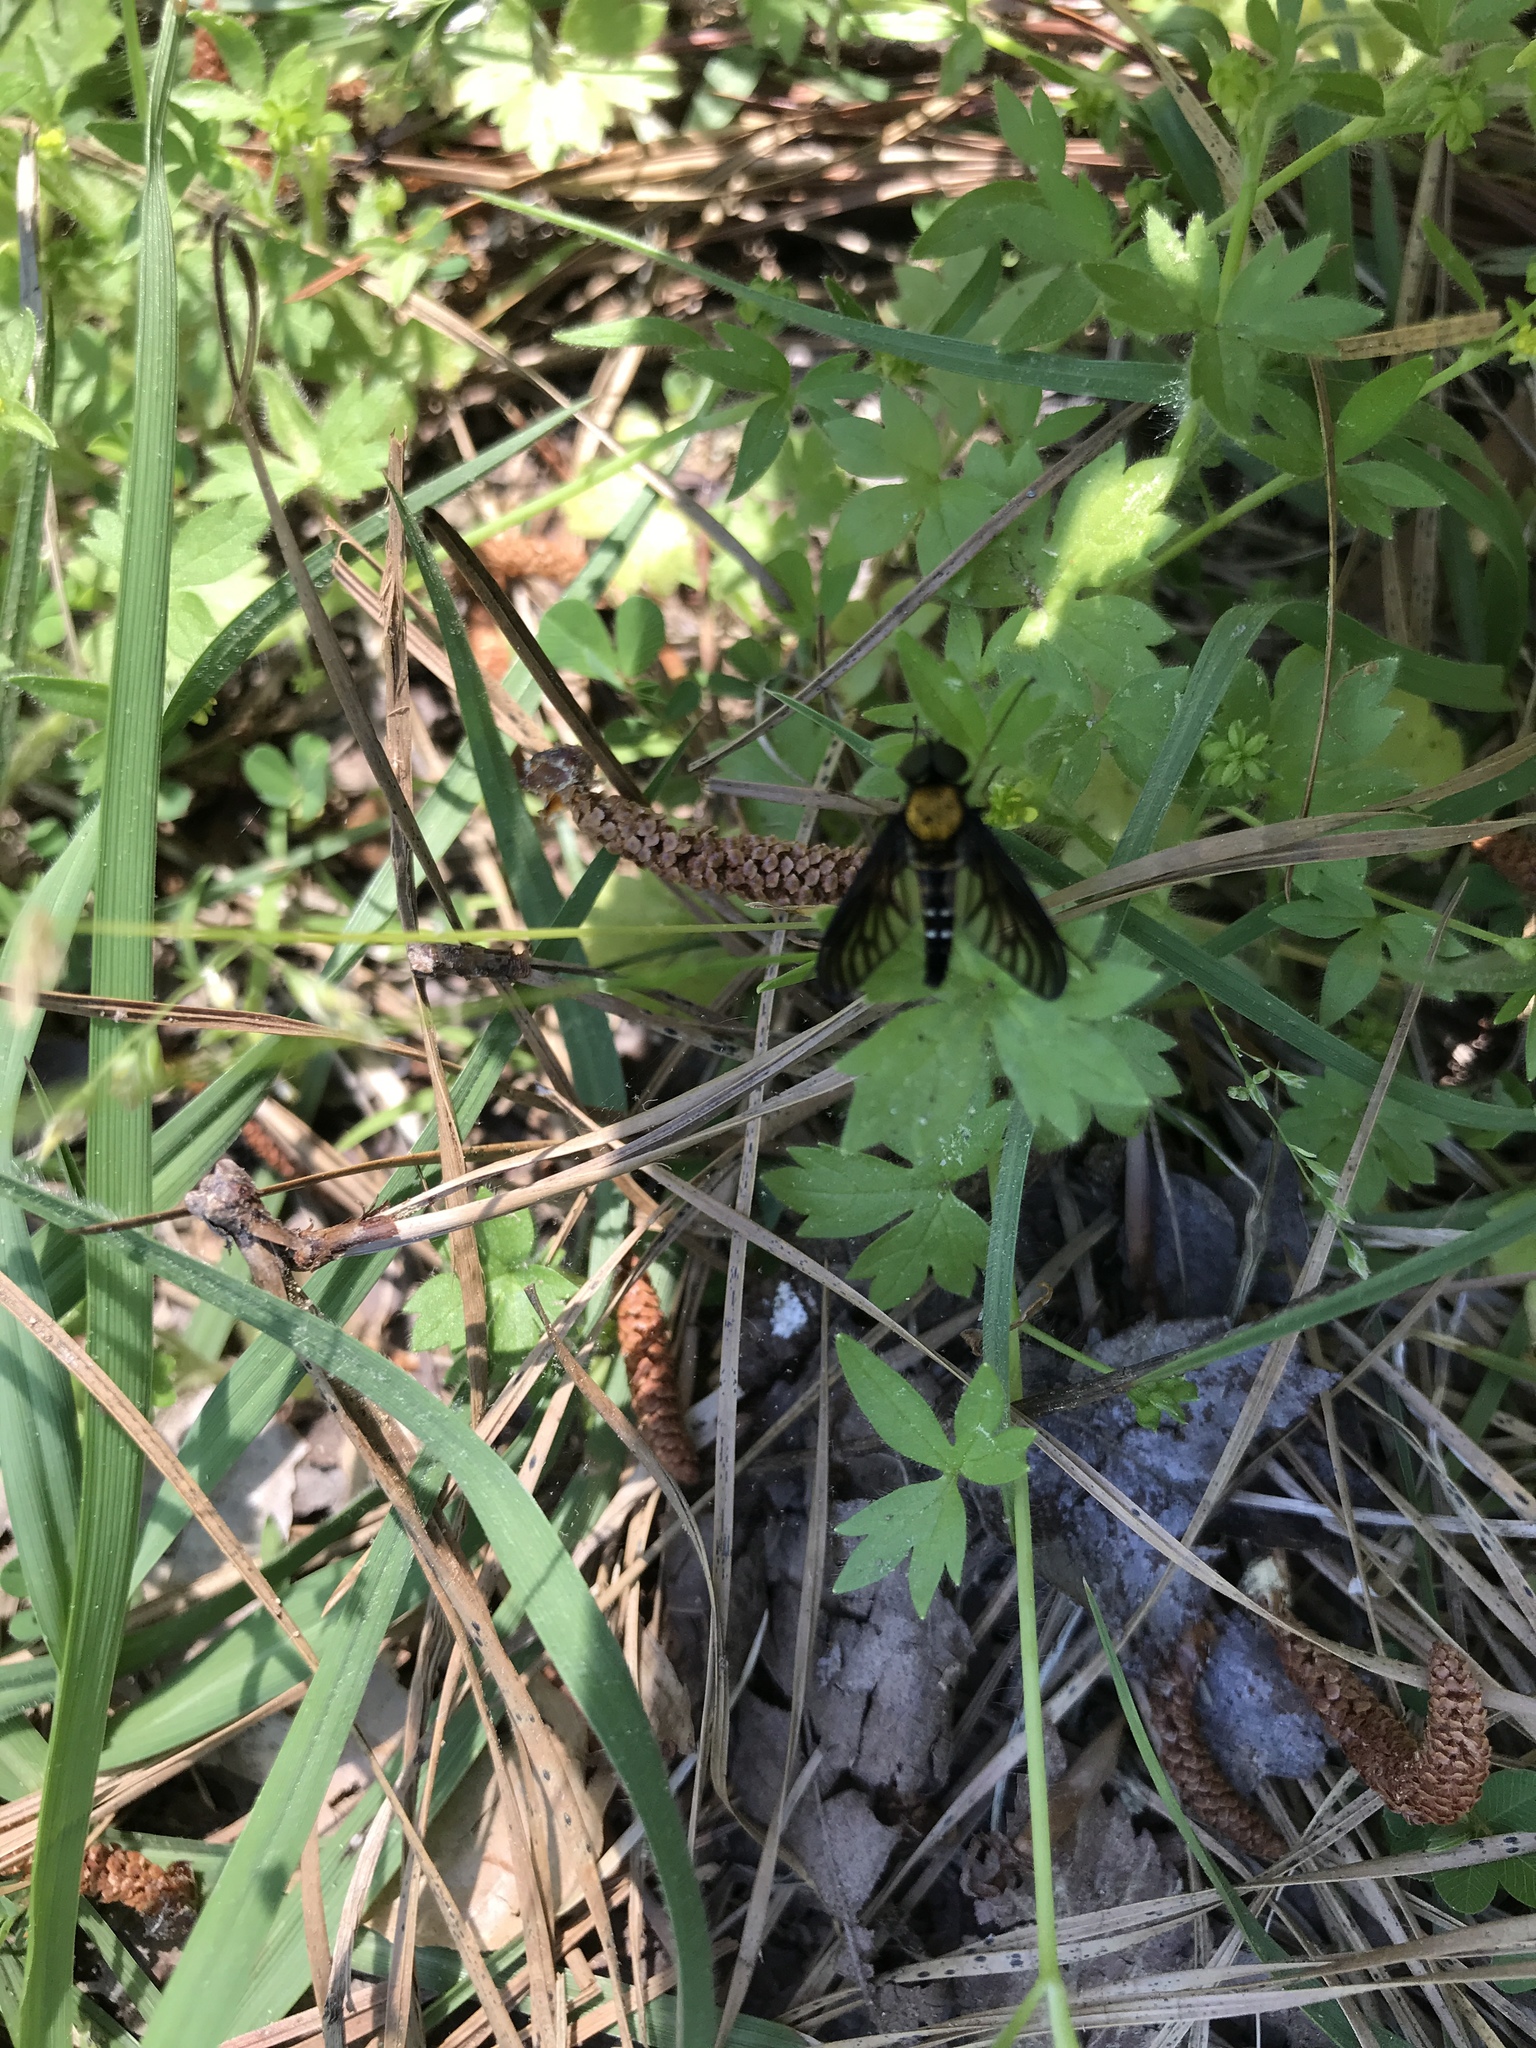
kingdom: Animalia
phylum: Arthropoda
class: Insecta
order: Diptera
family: Rhagionidae
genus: Chrysopilus
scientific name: Chrysopilus thoracicus
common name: Golden-backed snipe fly
